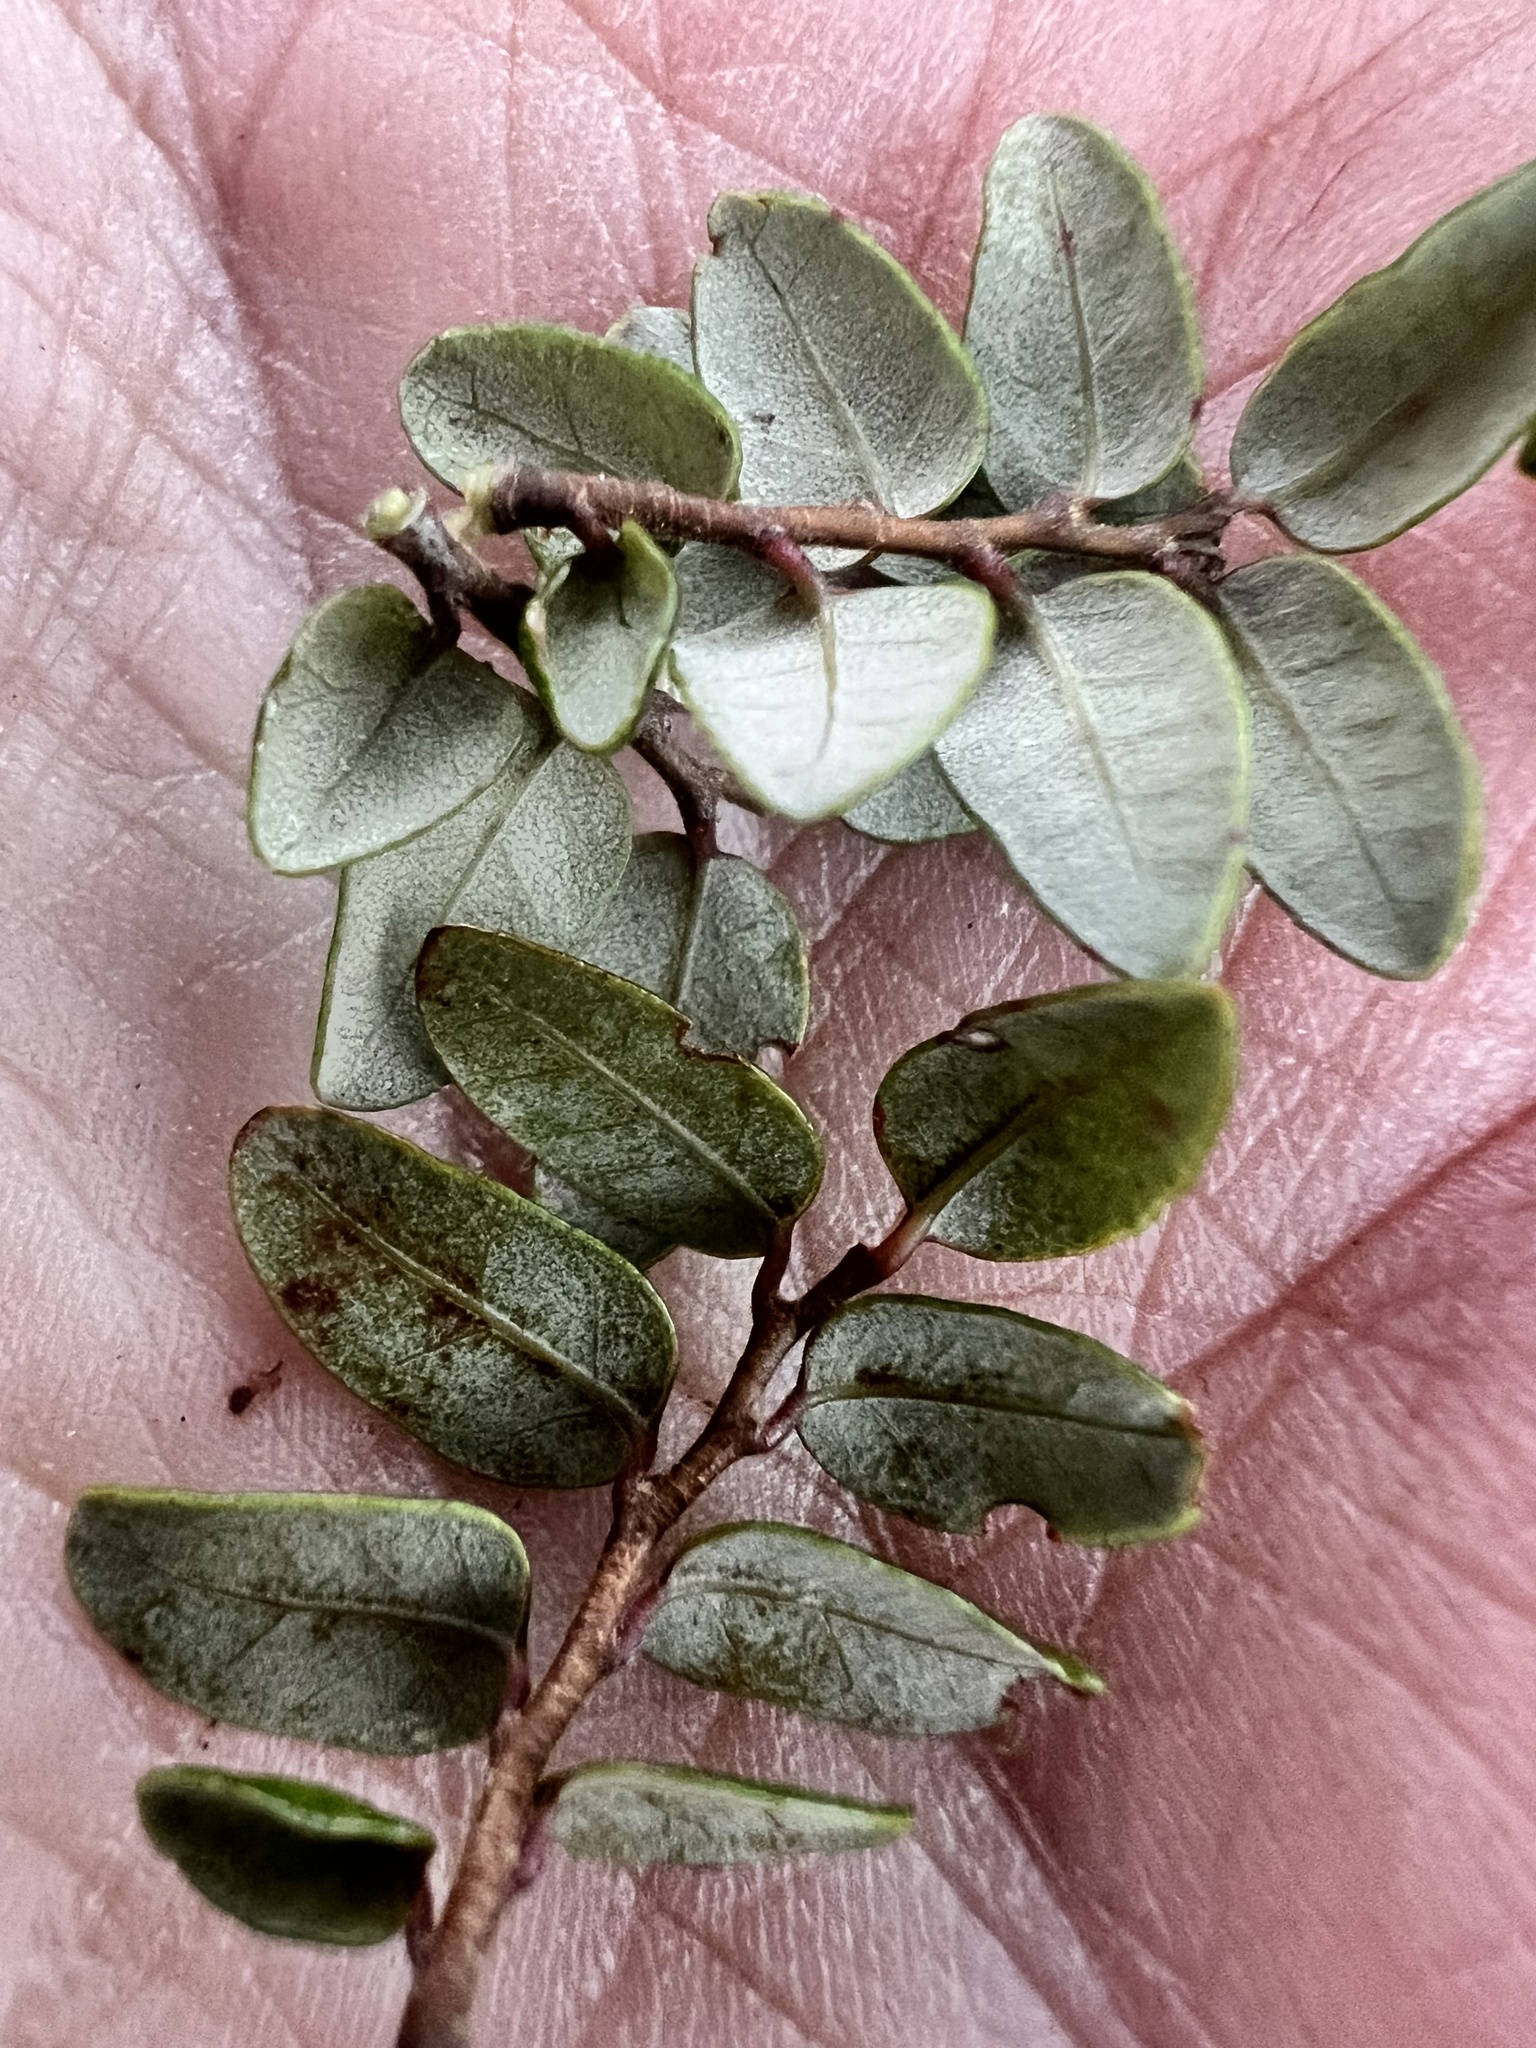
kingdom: Plantae
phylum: Tracheophyta
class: Magnoliopsida
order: Fagales
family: Nothofagaceae
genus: Nothofagus
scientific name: Nothofagus cliffortioides
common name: Mountain beech
